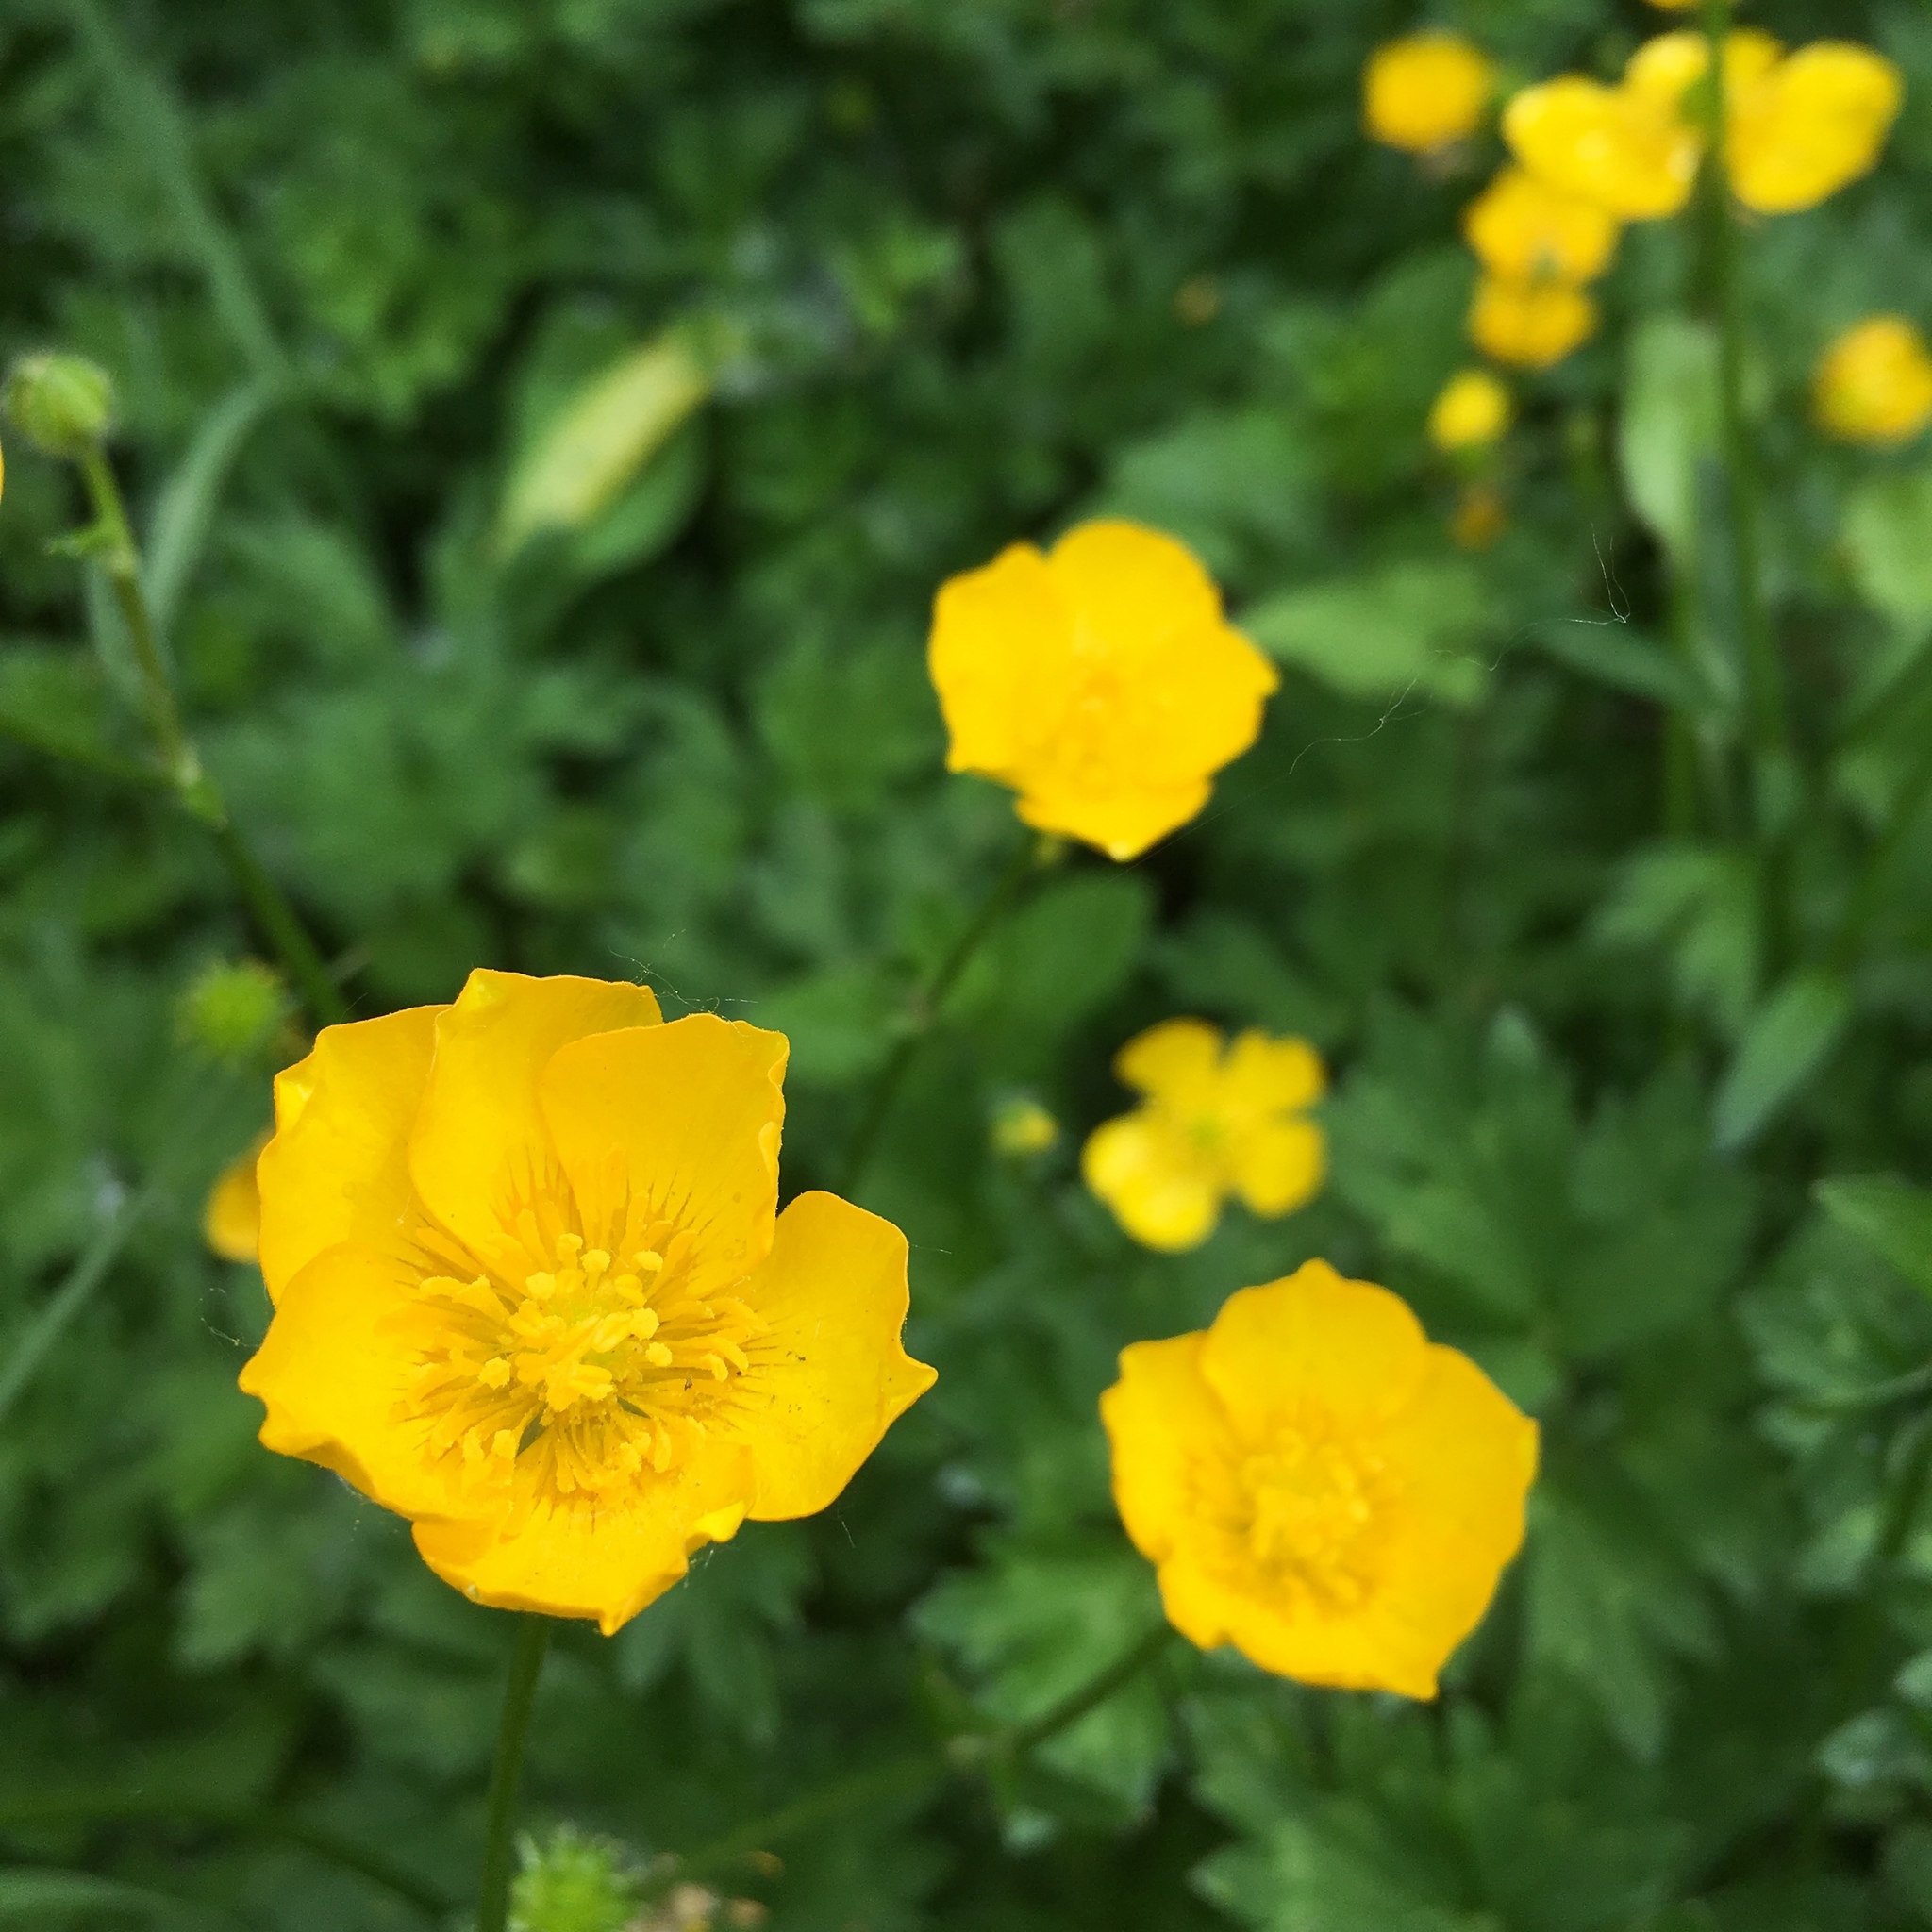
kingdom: Plantae
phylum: Tracheophyta
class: Magnoliopsida
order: Ranunculales
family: Ranunculaceae
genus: Ranunculus
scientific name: Ranunculus repens
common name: Creeping buttercup
